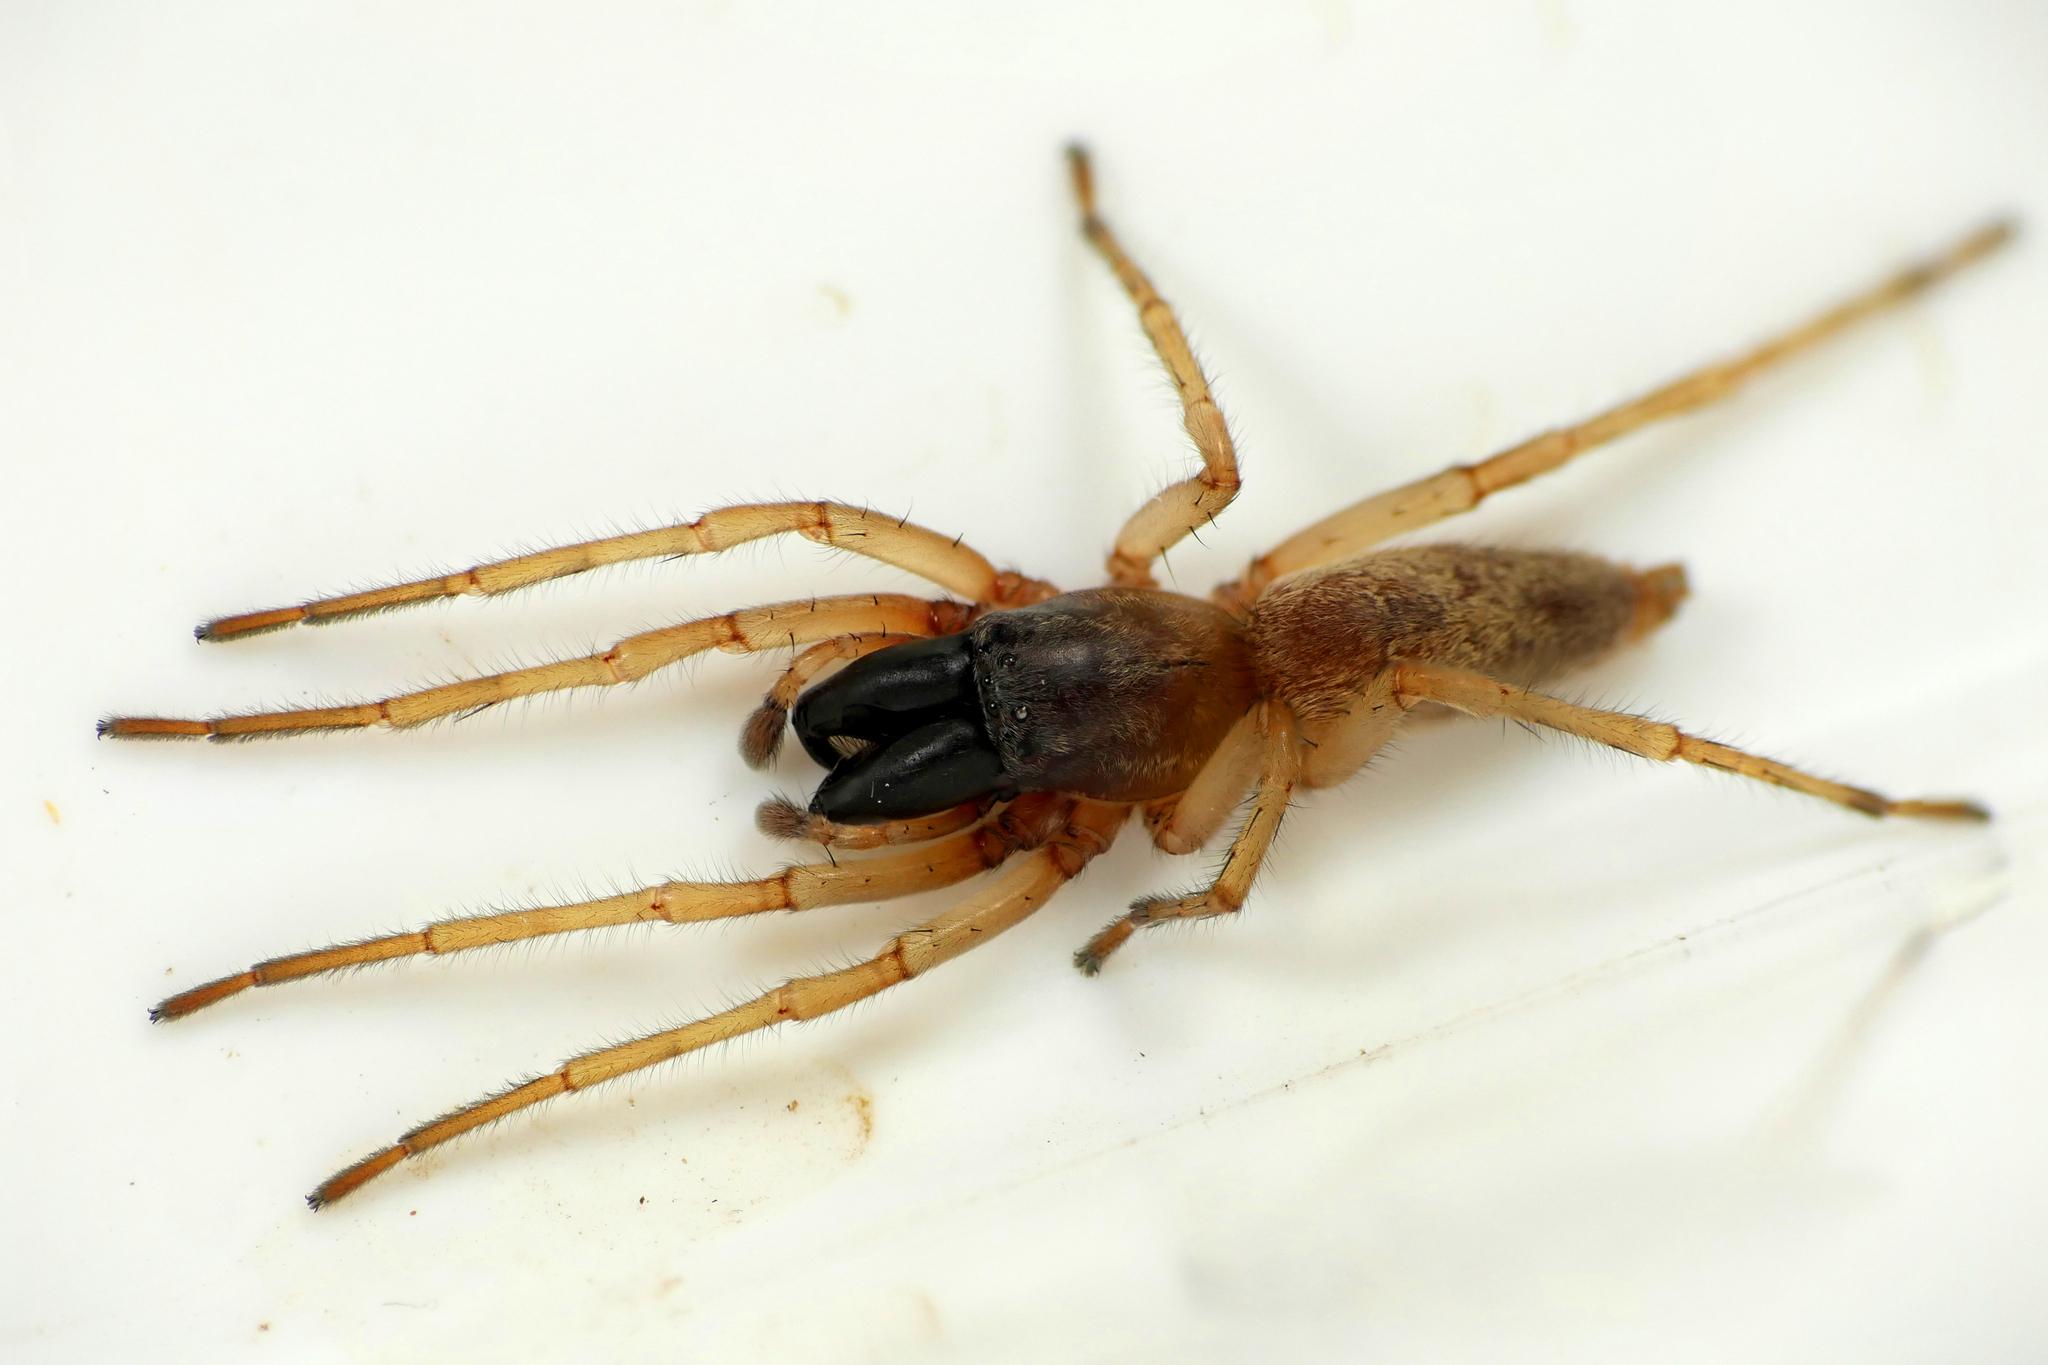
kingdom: Animalia
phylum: Arthropoda
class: Arachnida
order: Araneae
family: Clubionidae
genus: Clubiona
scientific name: Clubiona phragmitis
